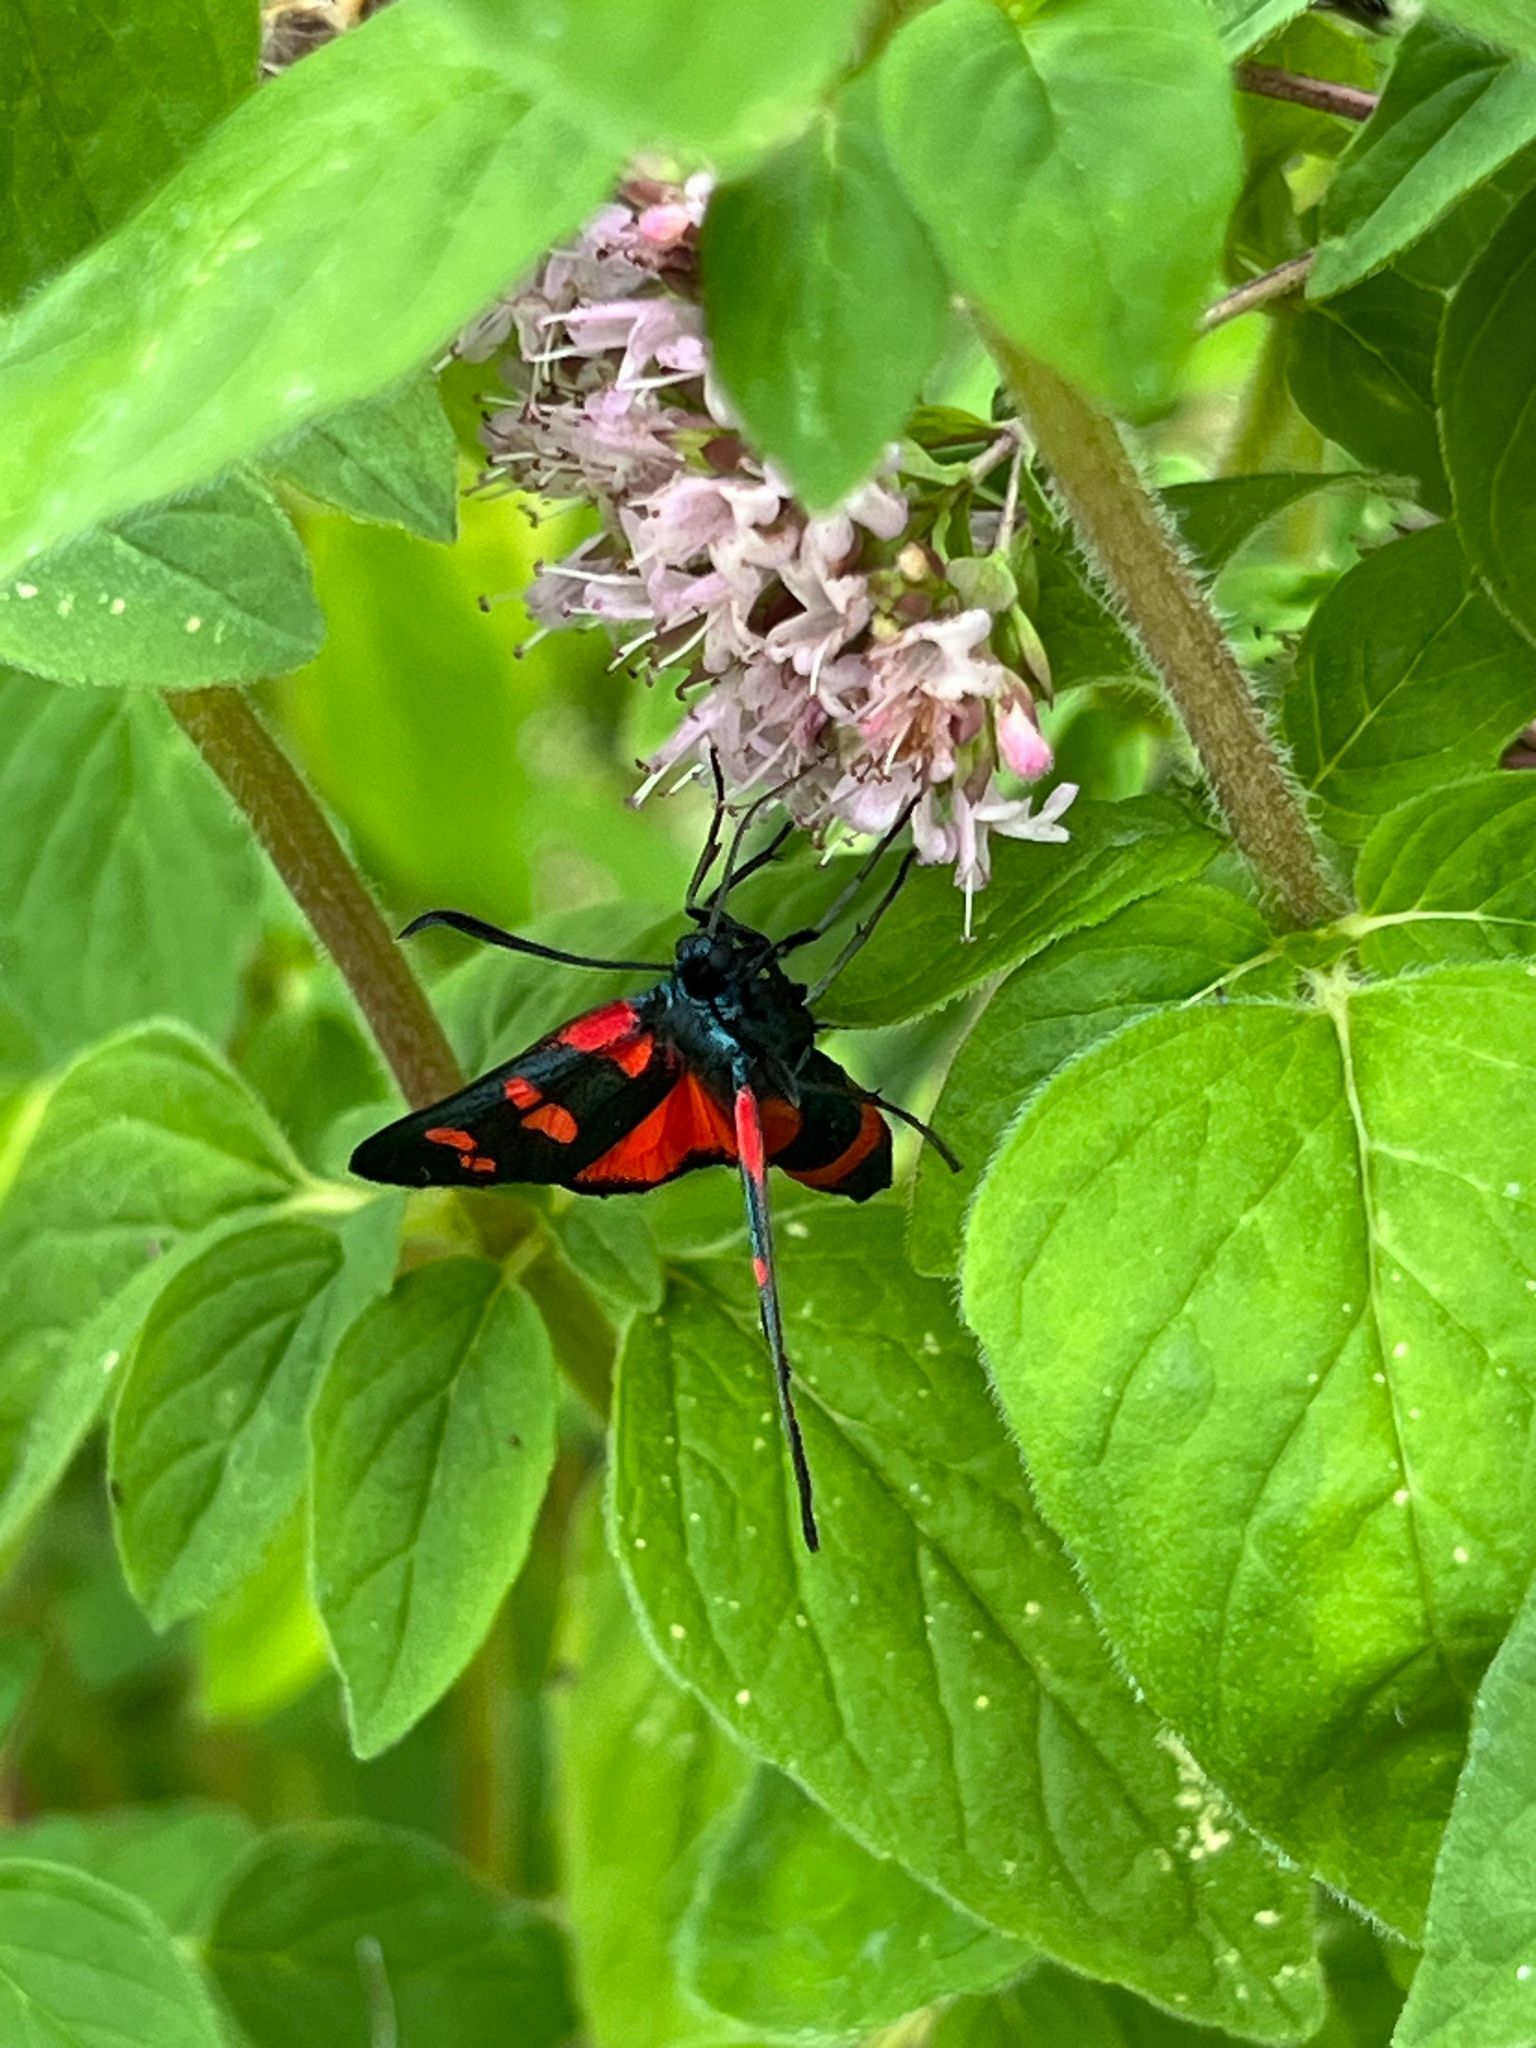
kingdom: Animalia
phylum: Arthropoda
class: Insecta
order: Lepidoptera
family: Zygaenidae
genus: Zygaena
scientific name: Zygaena ephialtes
